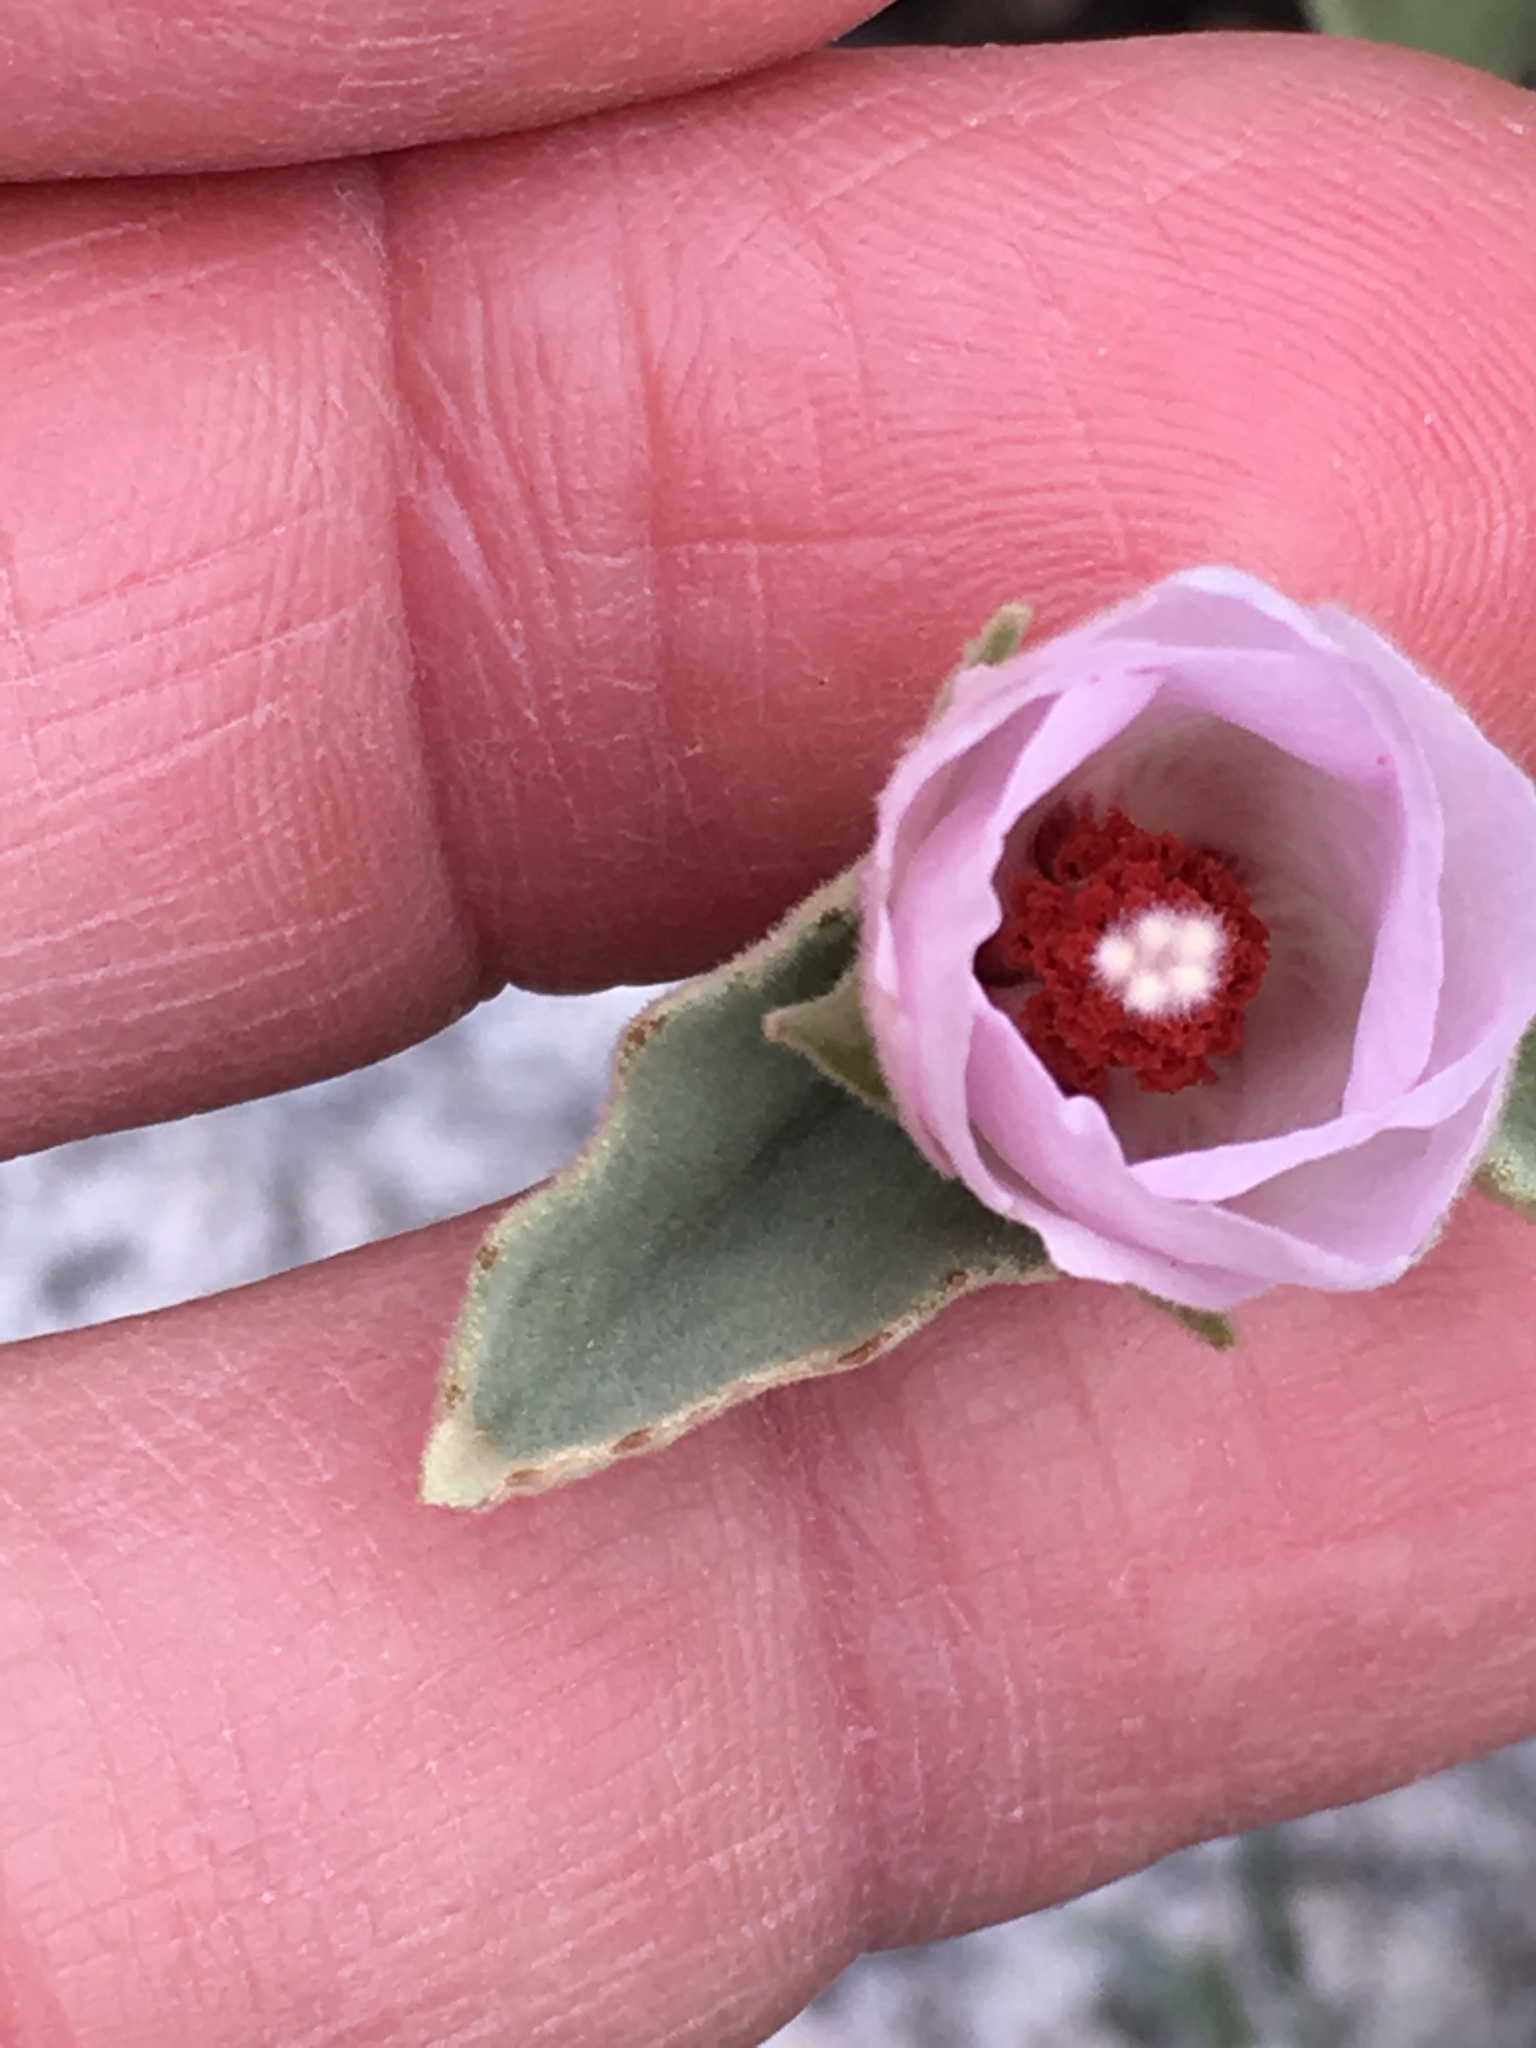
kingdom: Plantae
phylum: Tracheophyta
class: Magnoliopsida
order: Malvales
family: Malvaceae
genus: Hibiscus
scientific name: Hibiscus denudatus
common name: Paleface
